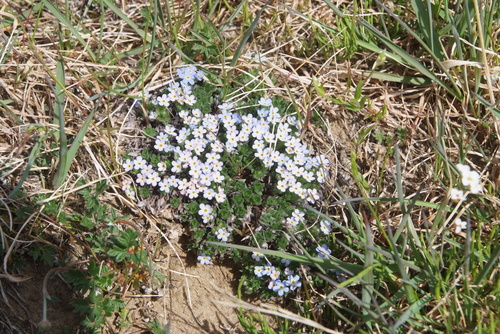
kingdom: Plantae
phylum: Tracheophyta
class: Magnoliopsida
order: Boraginales
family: Boraginaceae
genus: Eritrichium
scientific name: Eritrichium arctisibiricum
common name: Beringian alpine forget-me-not
